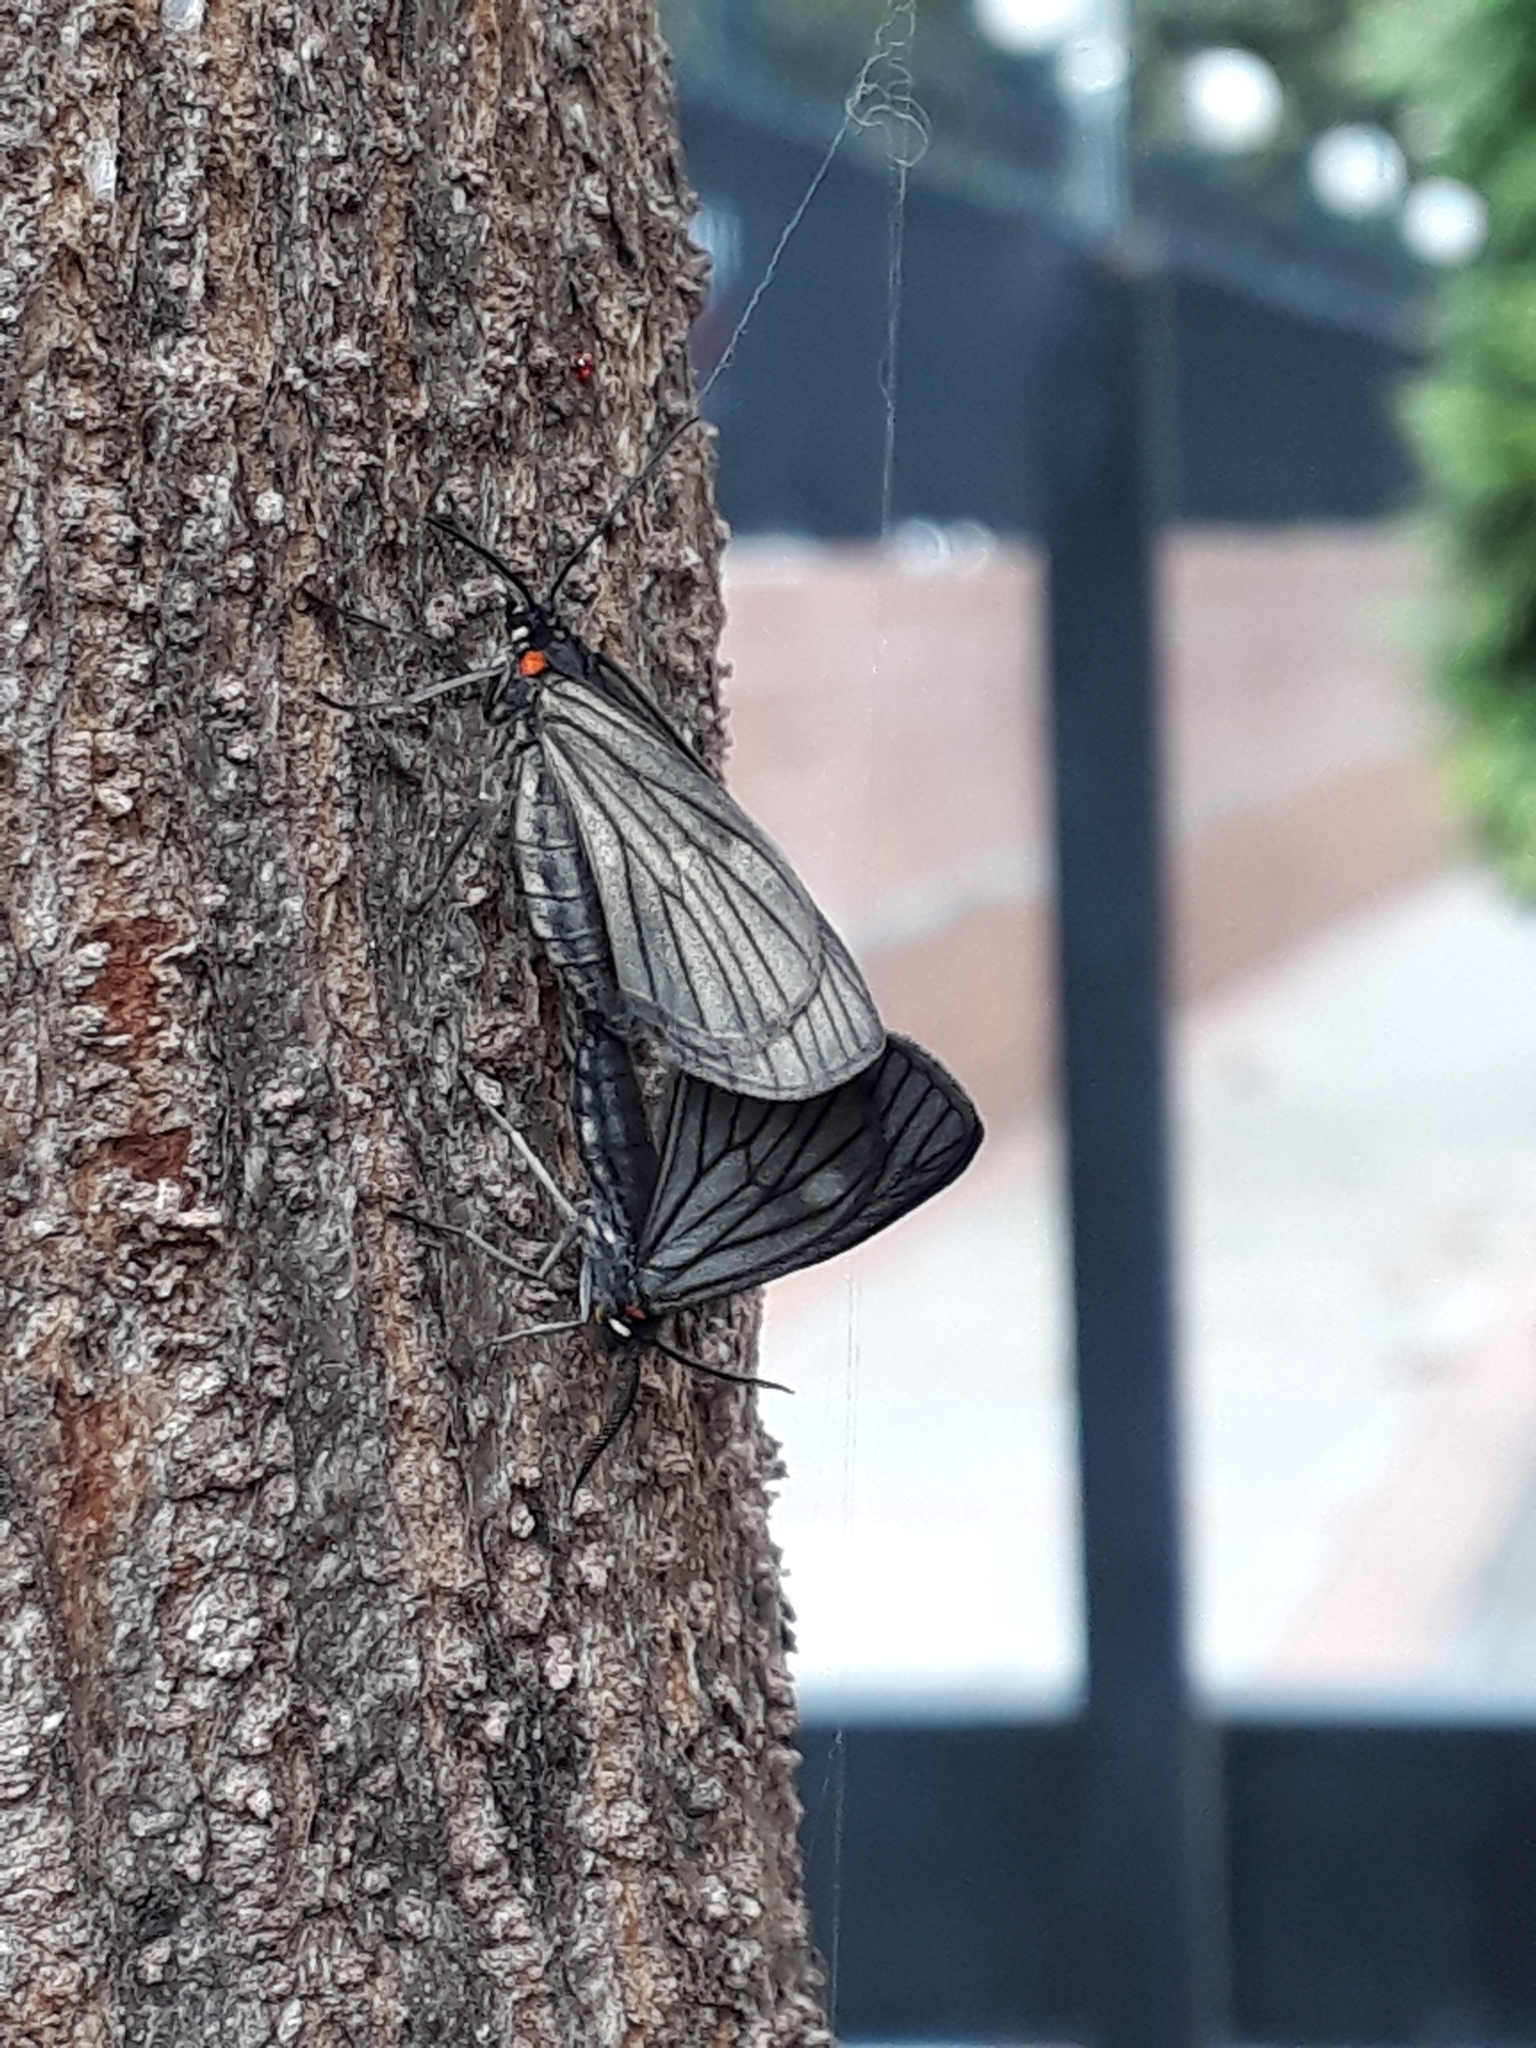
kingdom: Animalia
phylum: Arthropoda
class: Insecta
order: Lepidoptera
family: Geometridae
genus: Sangalopsis
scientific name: Sangalopsis ficifera
